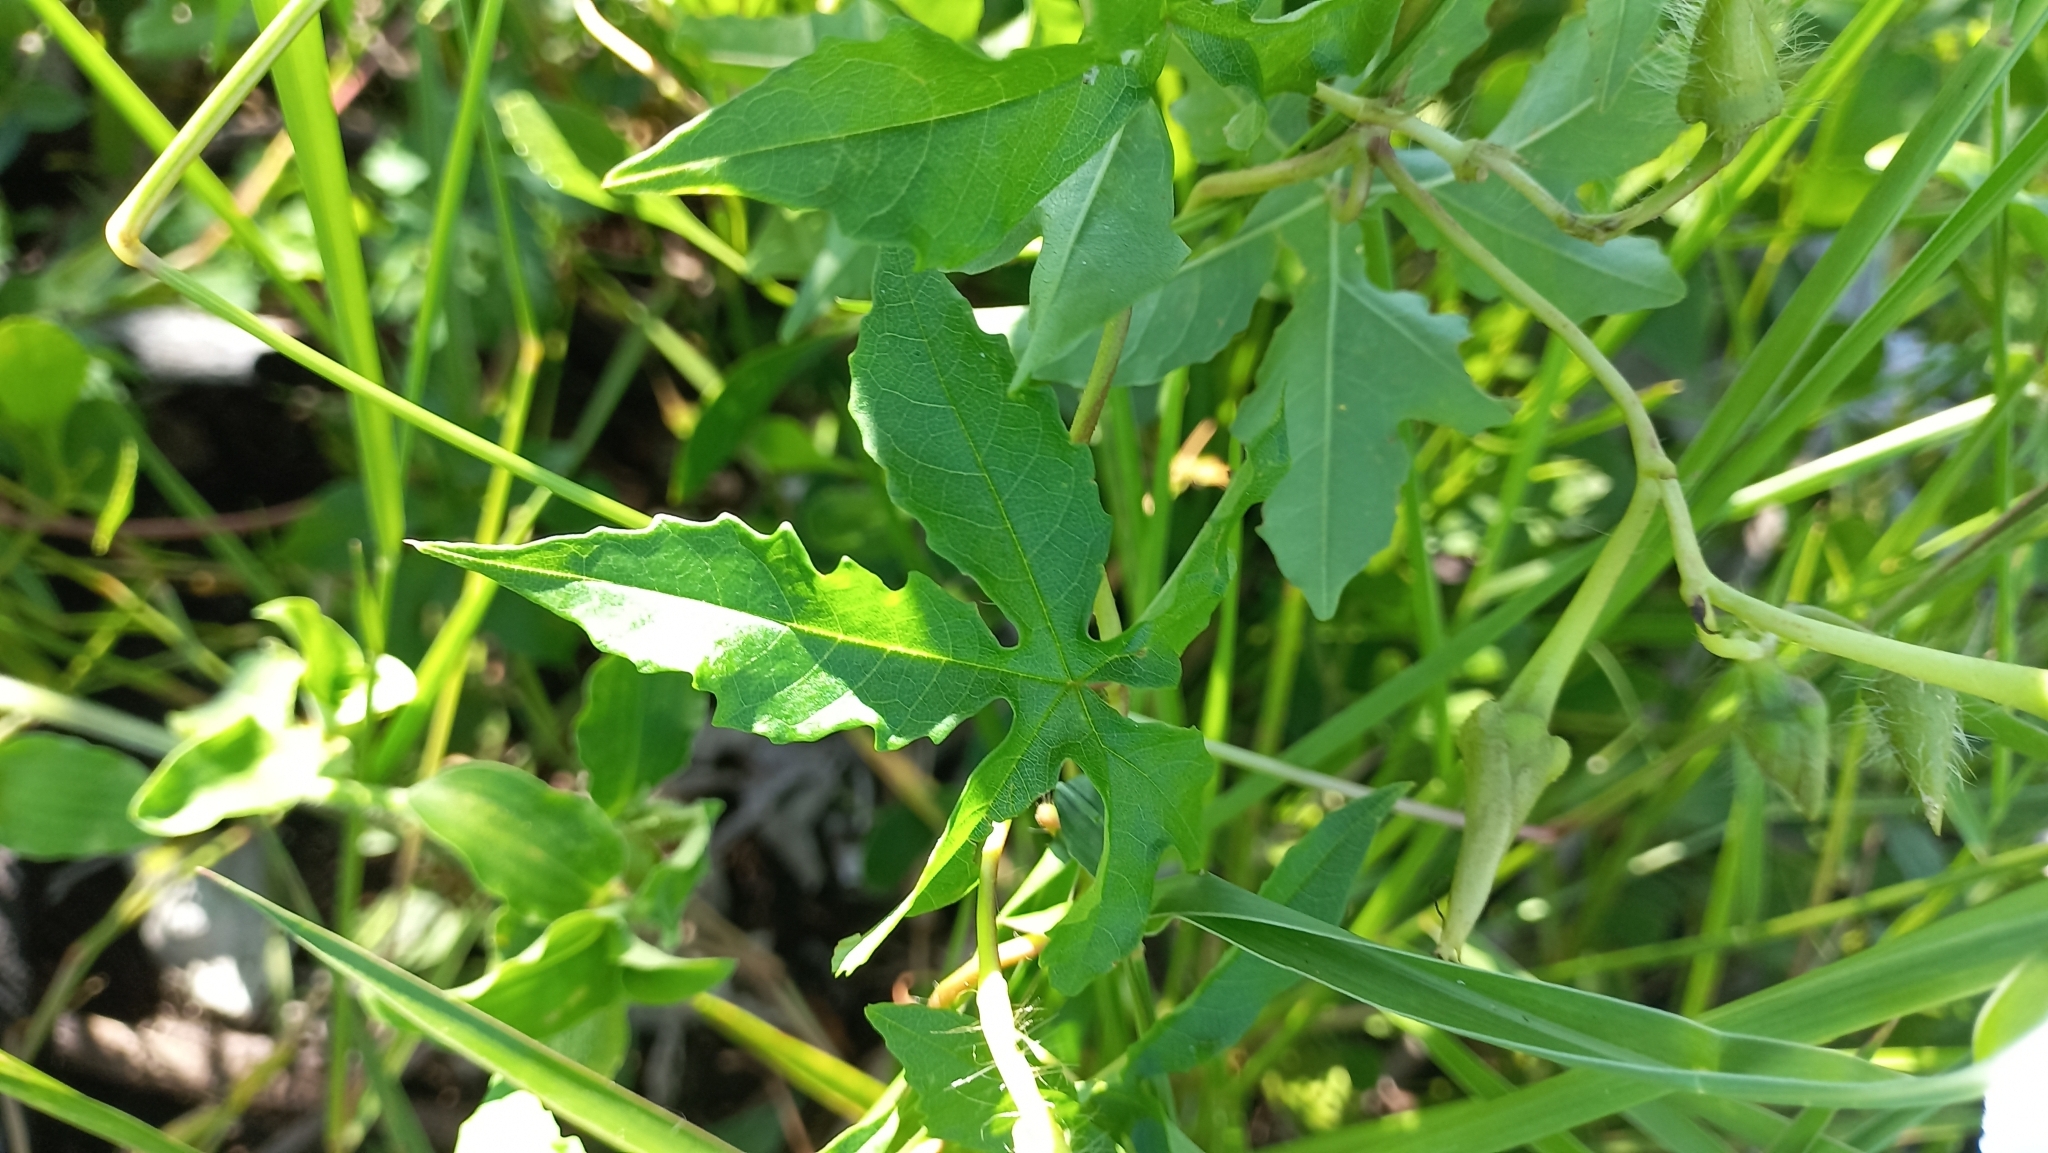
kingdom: Plantae
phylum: Tracheophyta
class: Magnoliopsida
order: Solanales
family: Convolvulaceae
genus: Distimake
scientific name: Distimake dissectus
